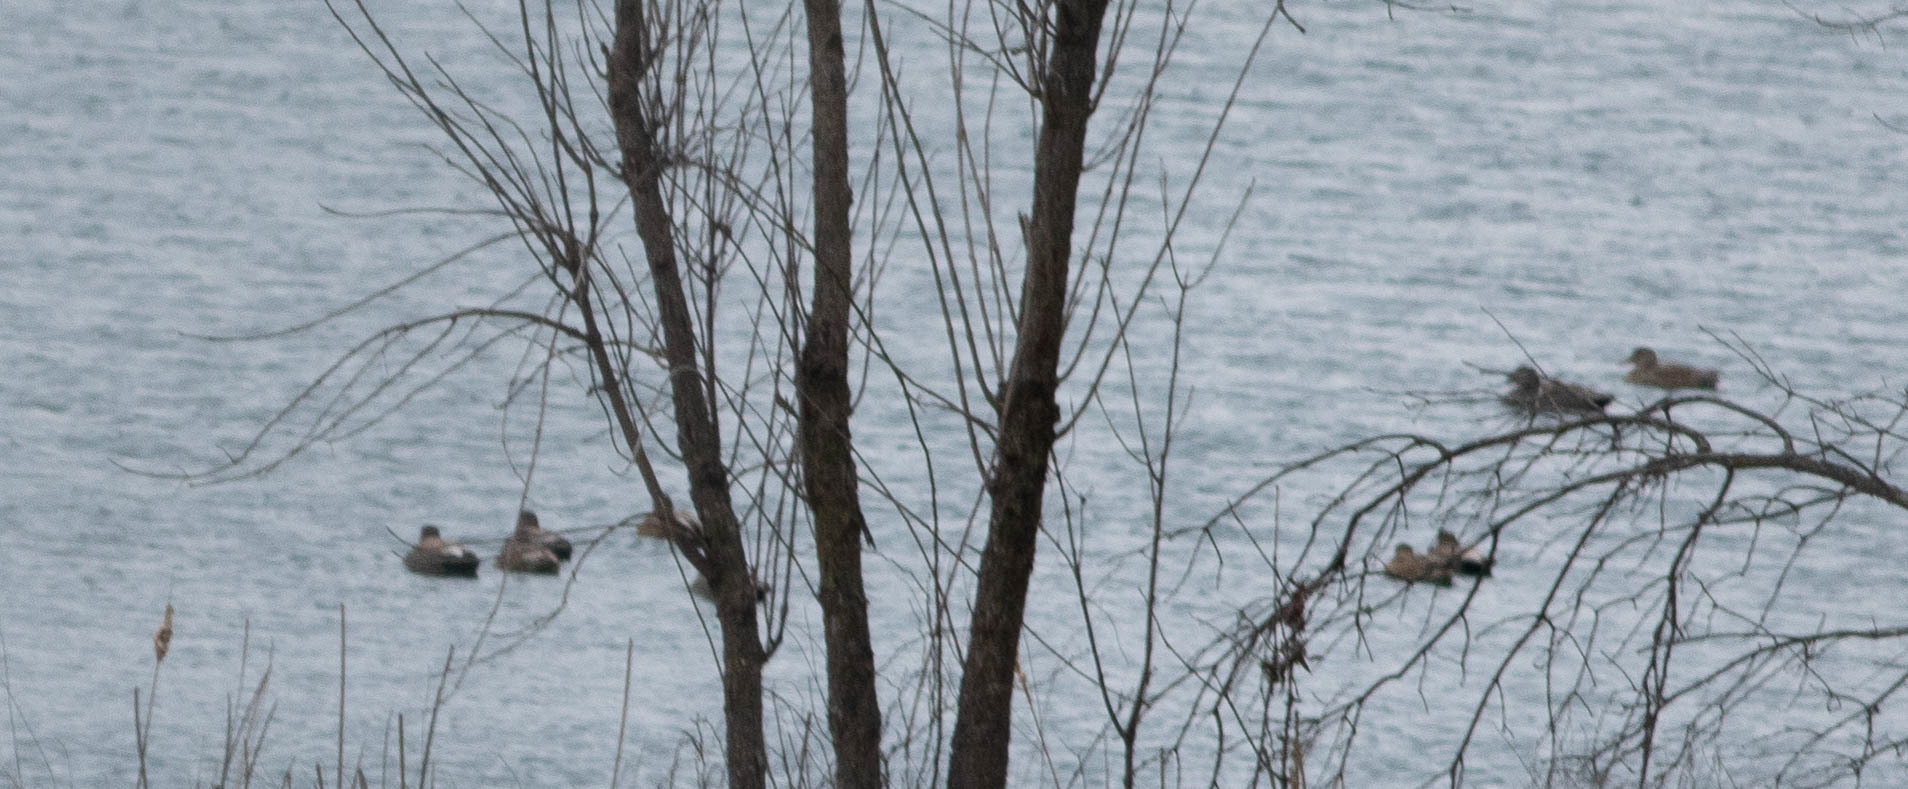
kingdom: Animalia
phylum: Chordata
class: Aves
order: Anseriformes
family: Anatidae
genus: Mareca
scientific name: Mareca strepera
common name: Gadwall
